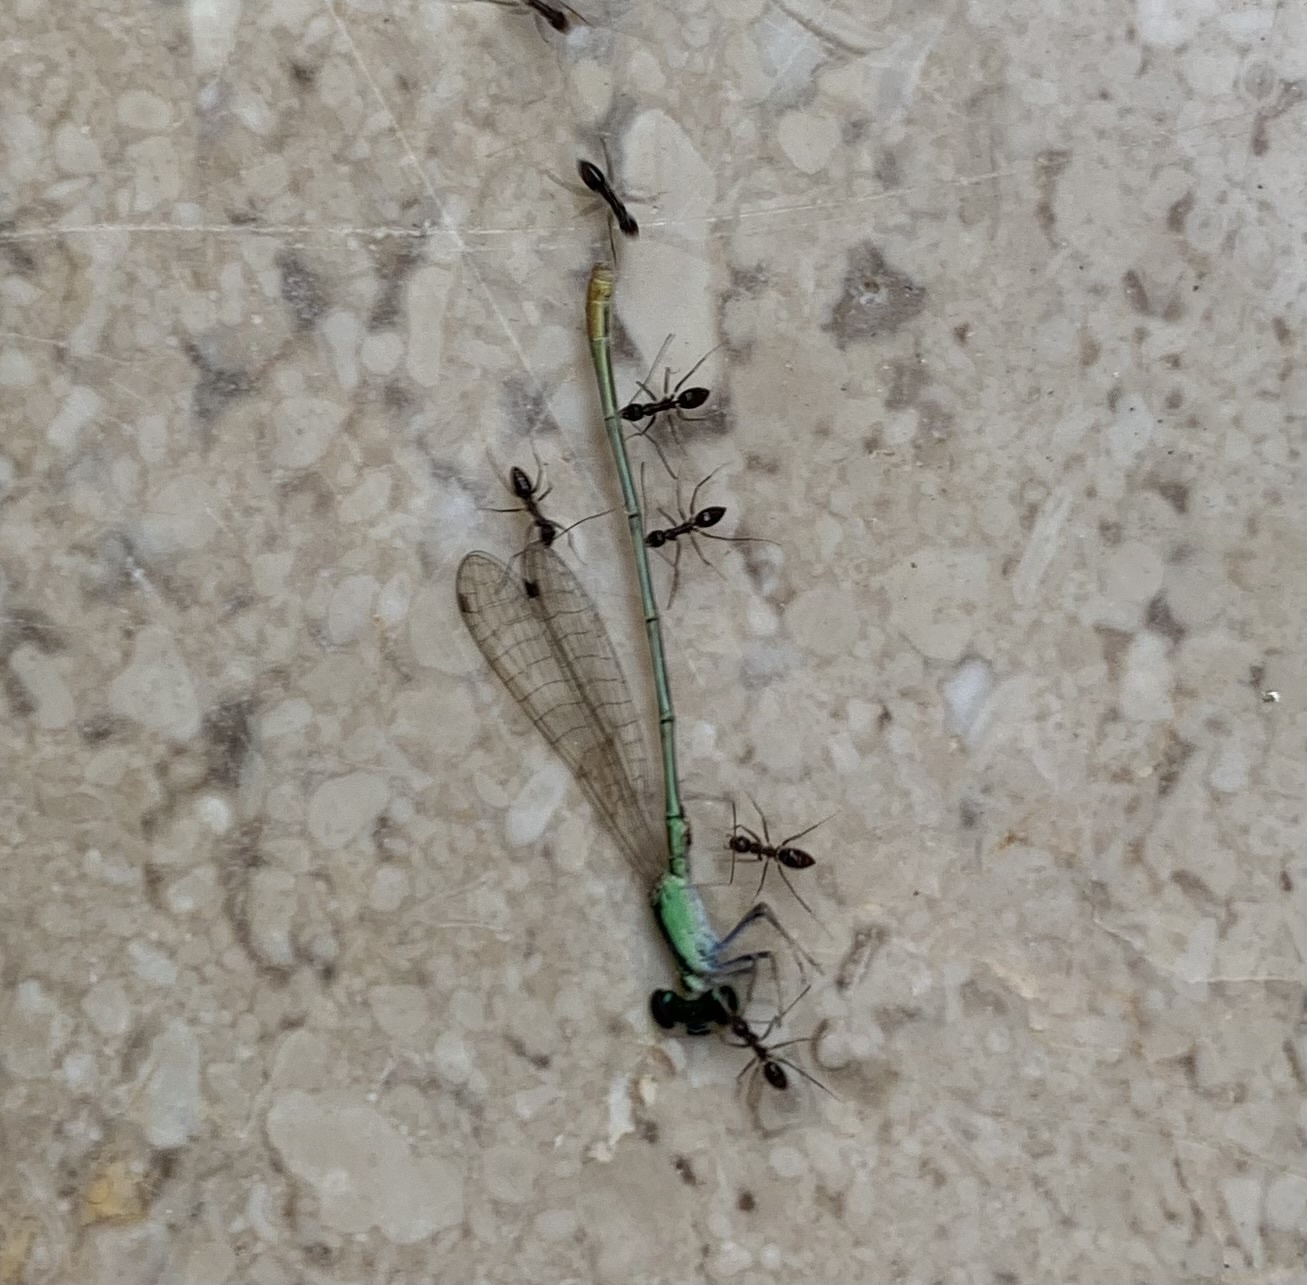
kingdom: Animalia
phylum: Arthropoda
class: Insecta
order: Odonata
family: Coenagrionidae
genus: Agriocnemis
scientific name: Agriocnemis pygmaea
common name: Pygmy wisp
